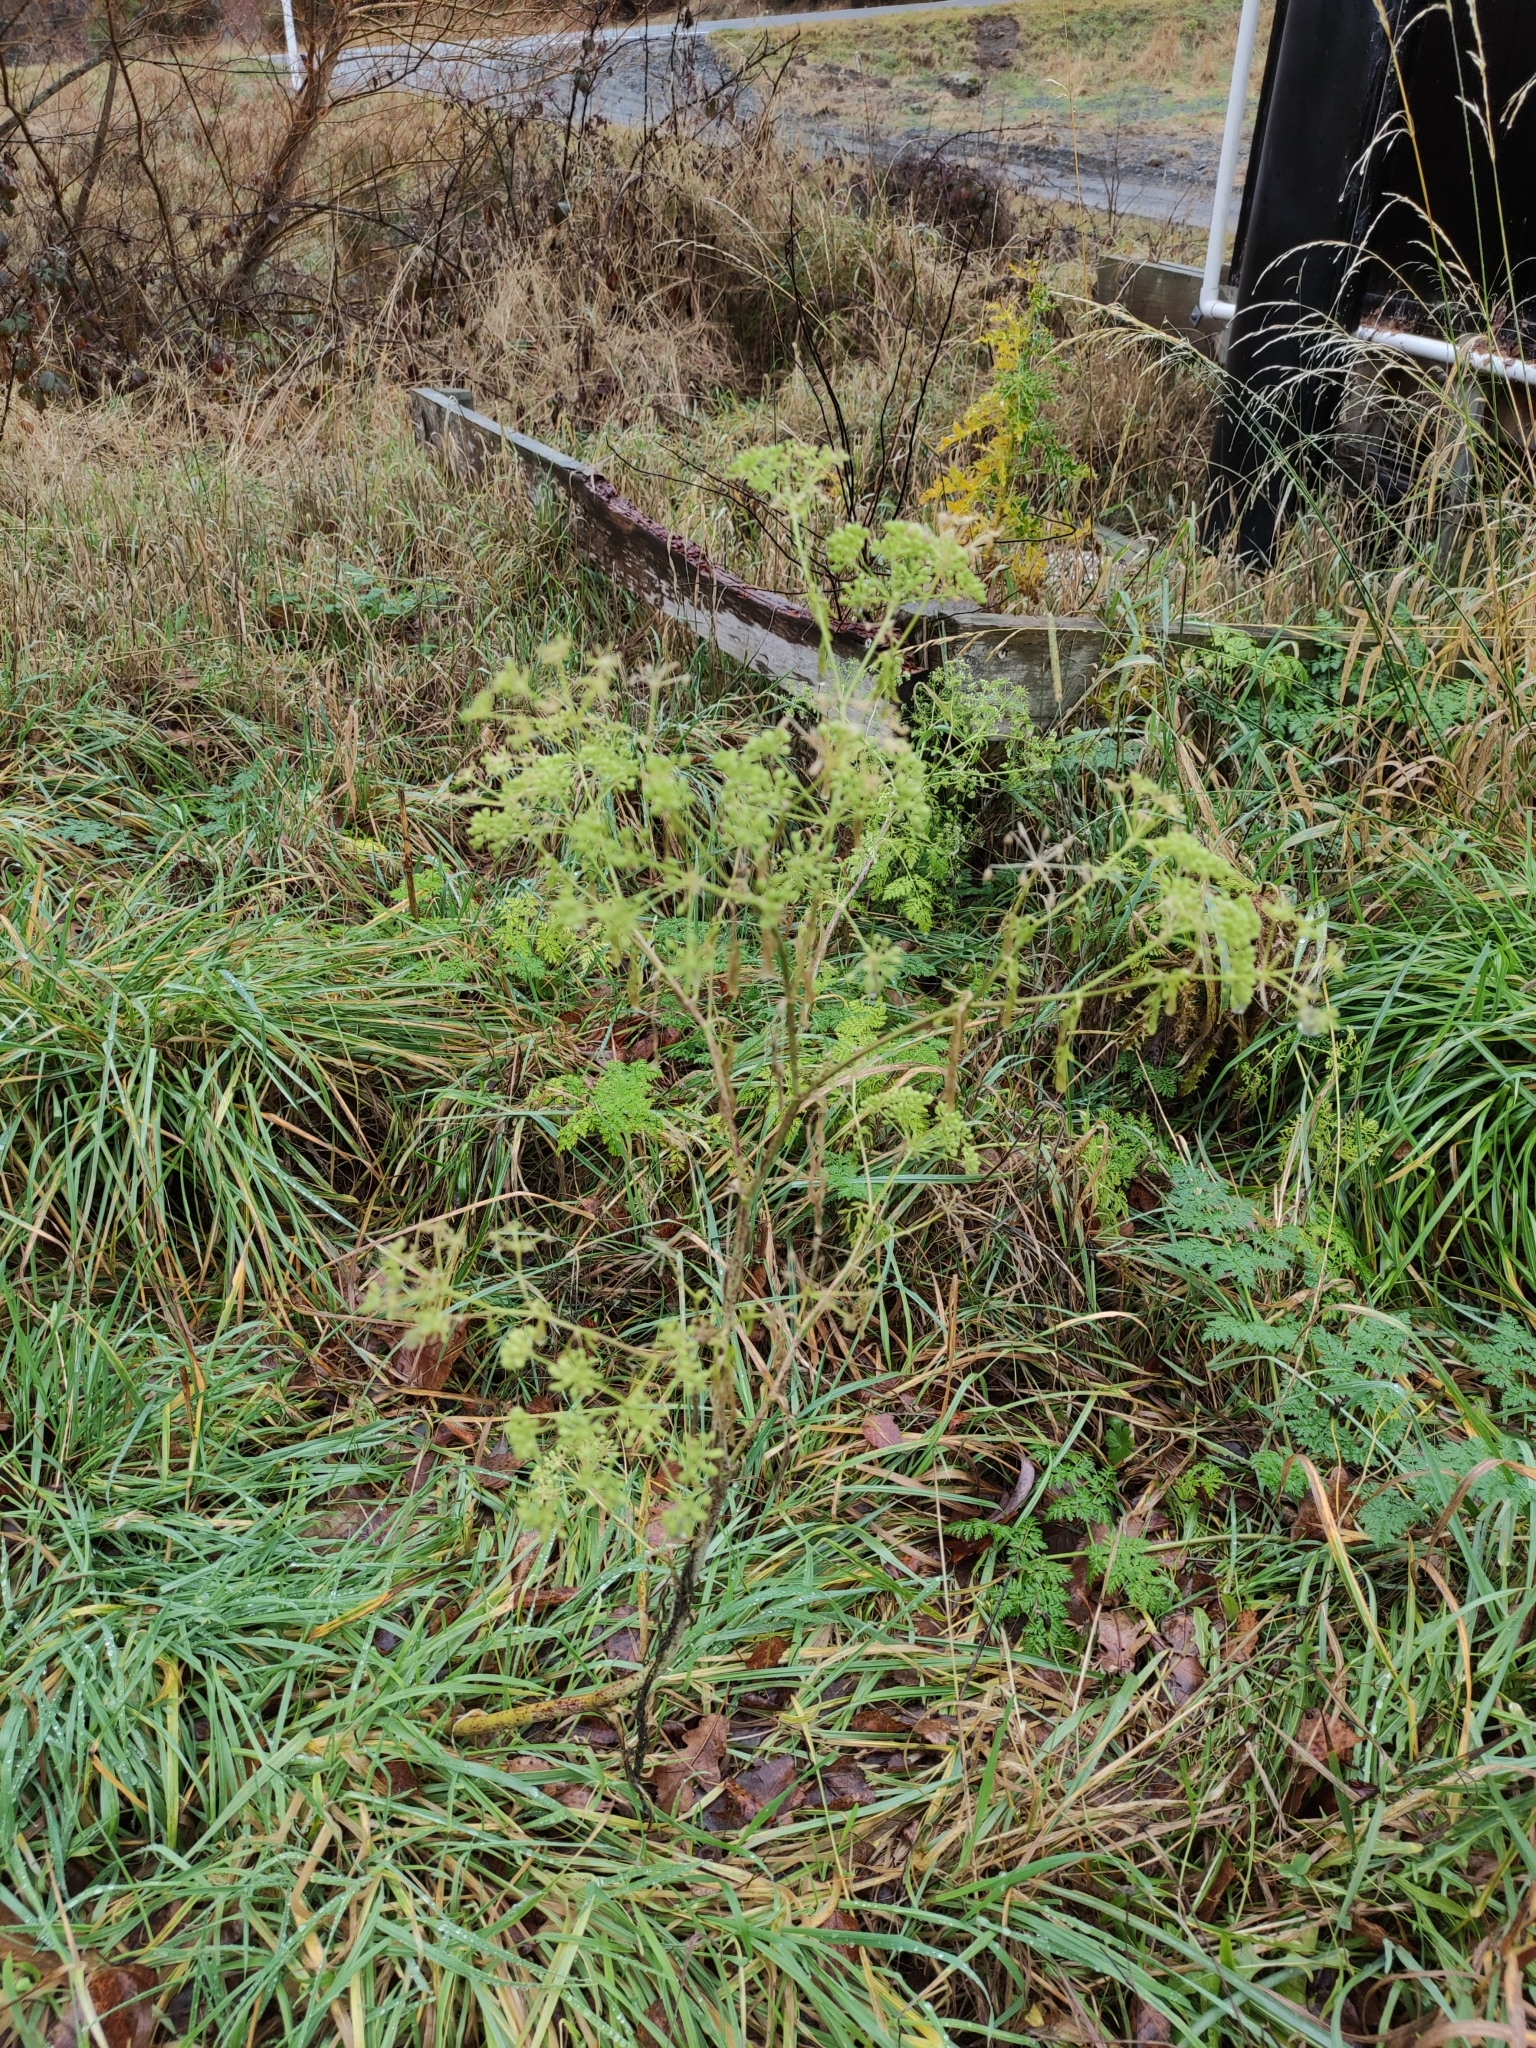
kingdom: Plantae
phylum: Tracheophyta
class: Magnoliopsida
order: Apiales
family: Apiaceae
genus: Conium
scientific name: Conium maculatum
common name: Hemlock
